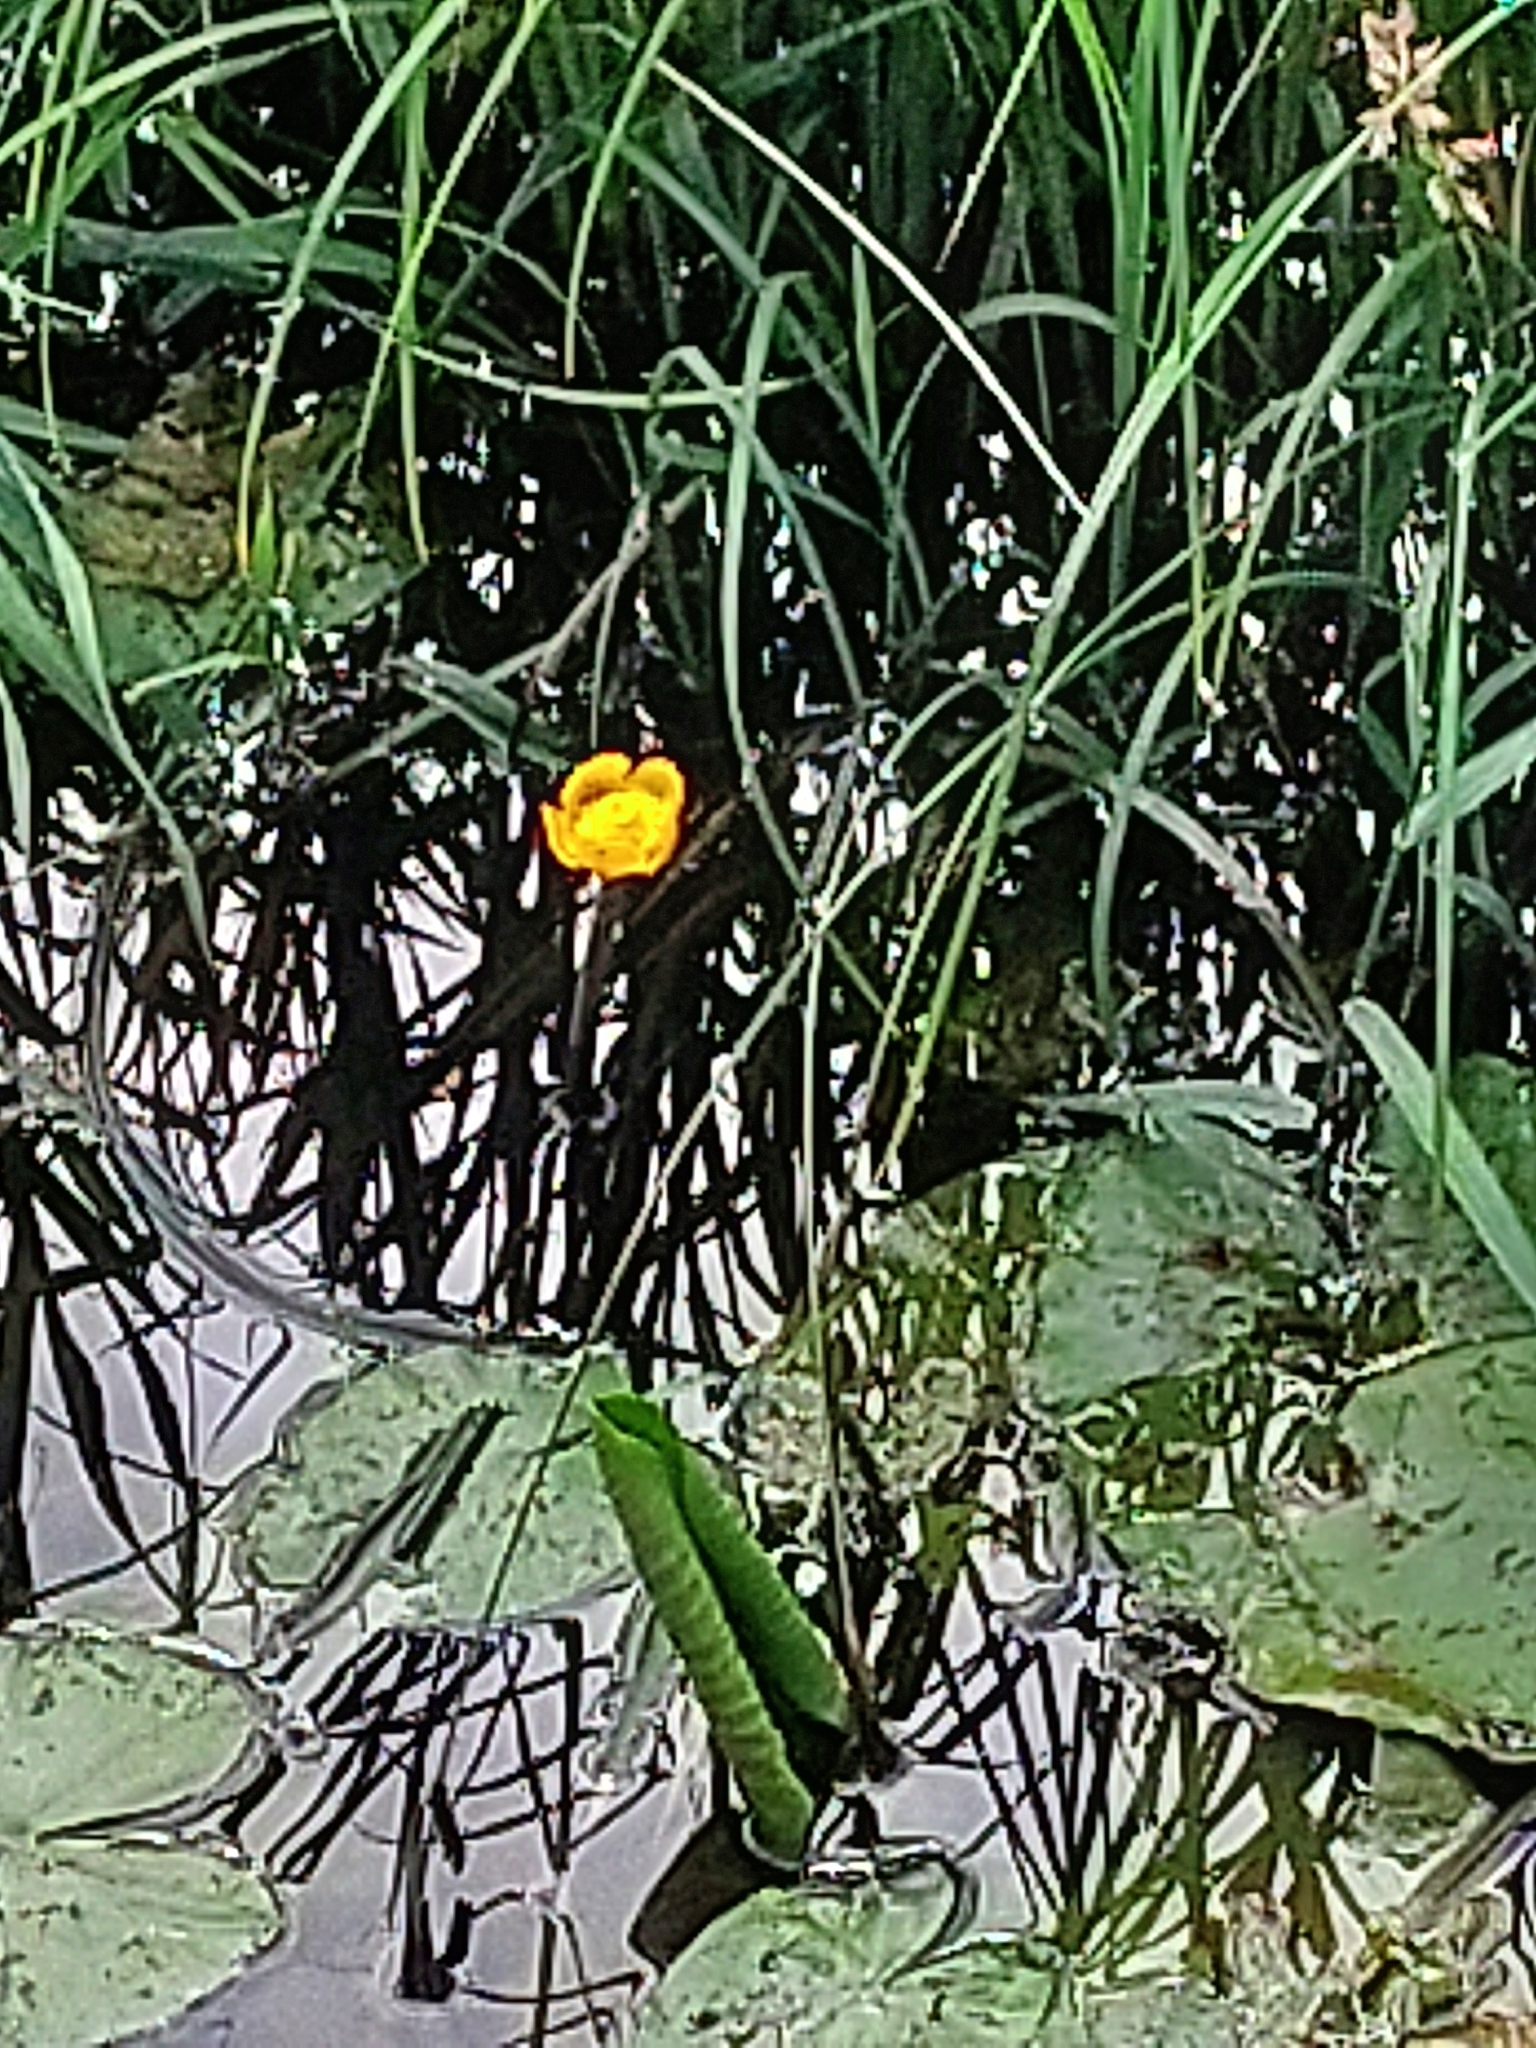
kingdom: Plantae
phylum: Tracheophyta
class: Magnoliopsida
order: Nymphaeales
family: Nymphaeaceae
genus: Nuphar
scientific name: Nuphar lutea
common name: Yellow water-lily
